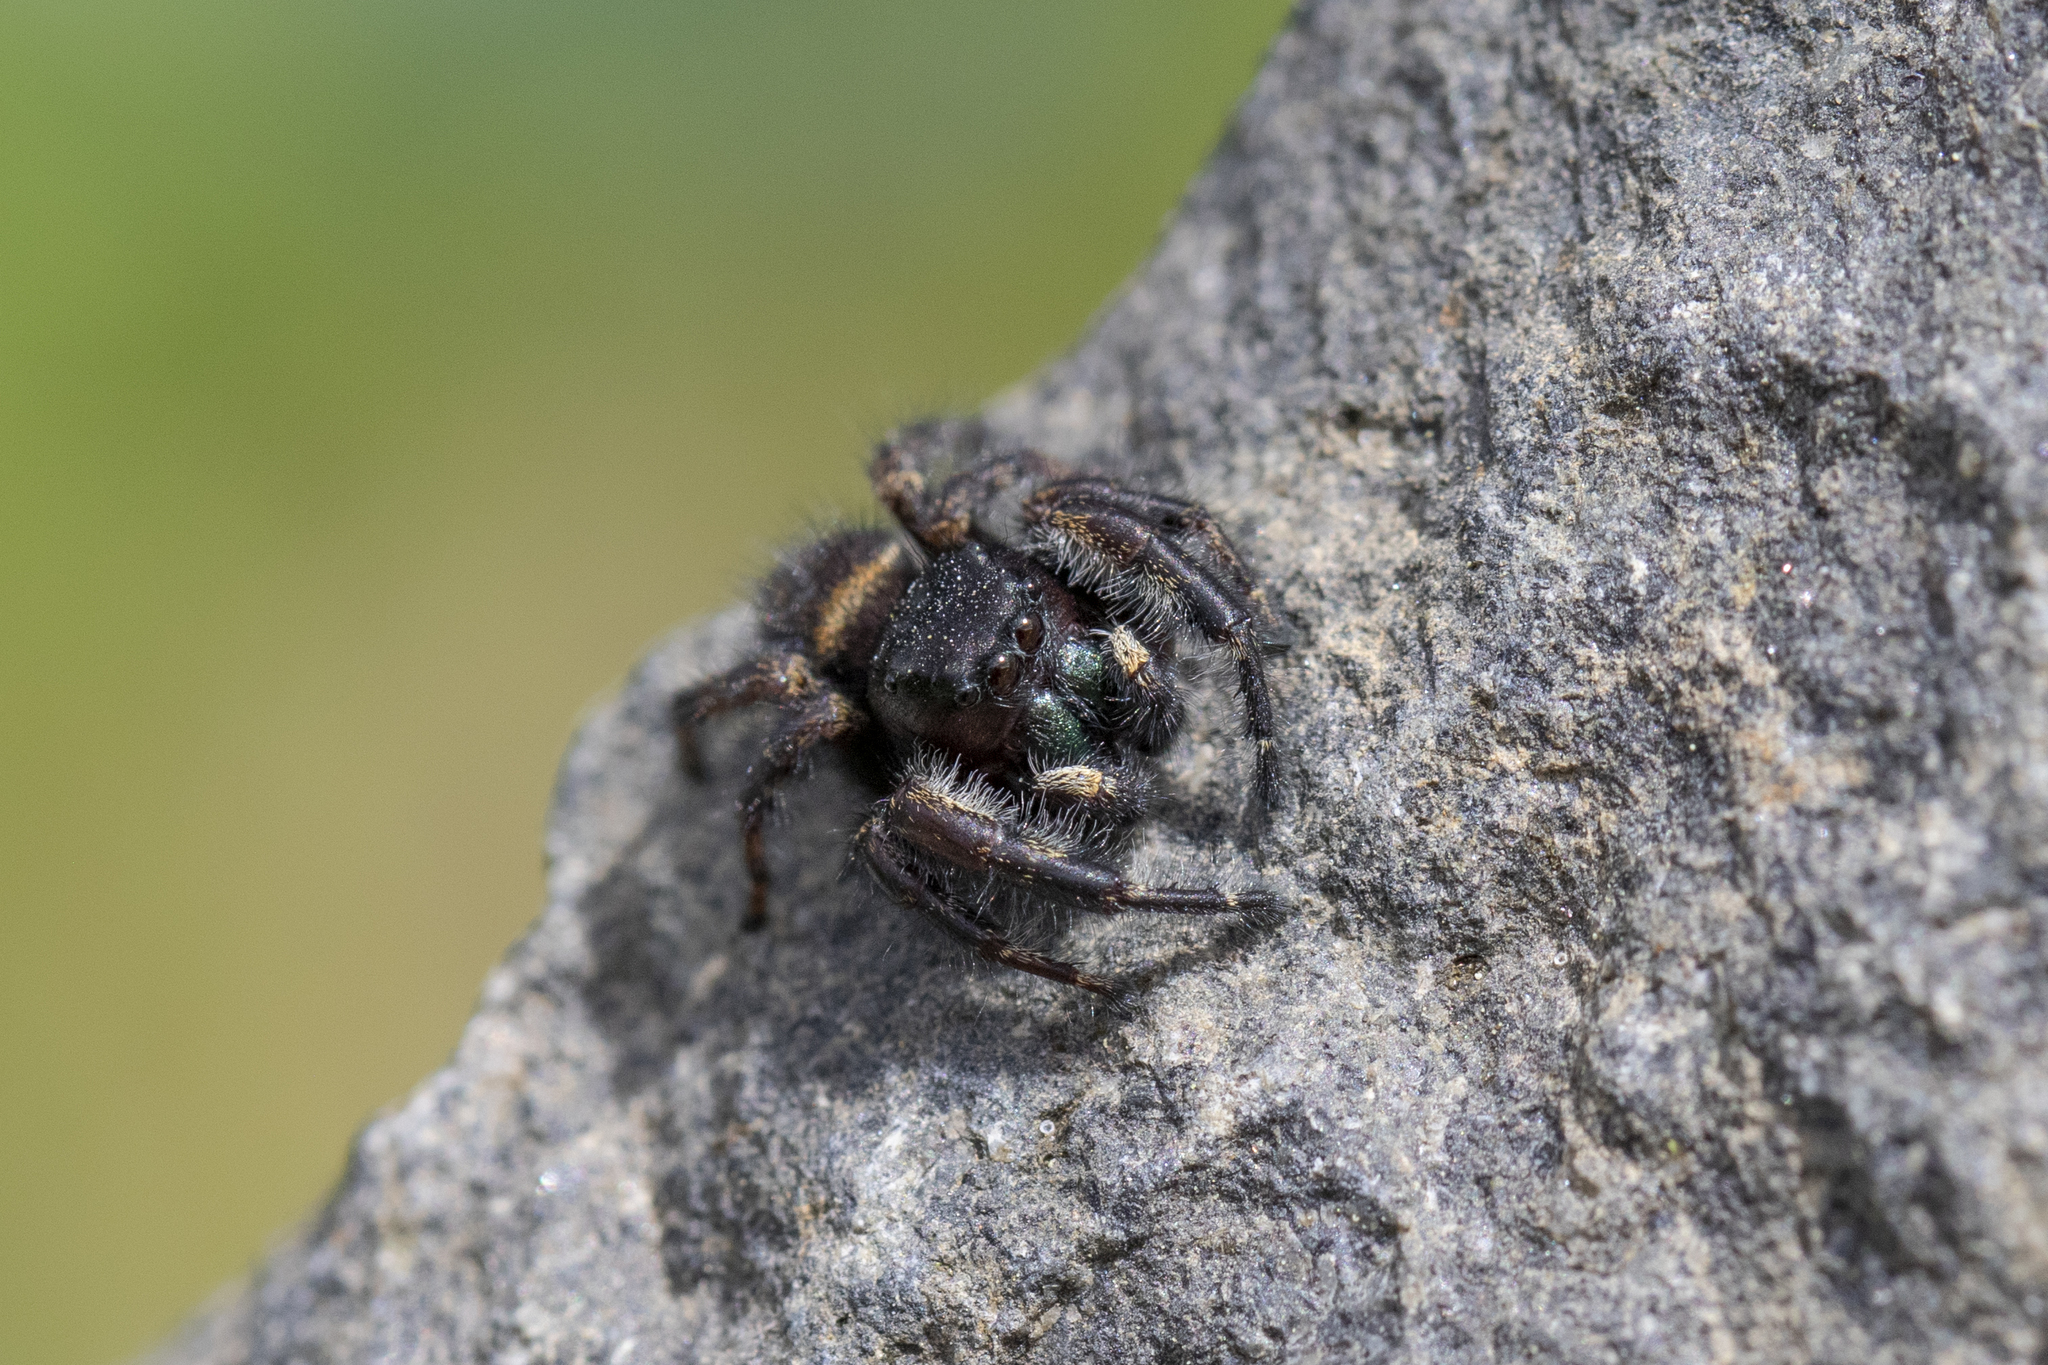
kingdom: Animalia
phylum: Arthropoda
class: Arachnida
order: Araneae
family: Salticidae
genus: Phidippus
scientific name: Phidippus princeps
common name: Grayish jumping spider
